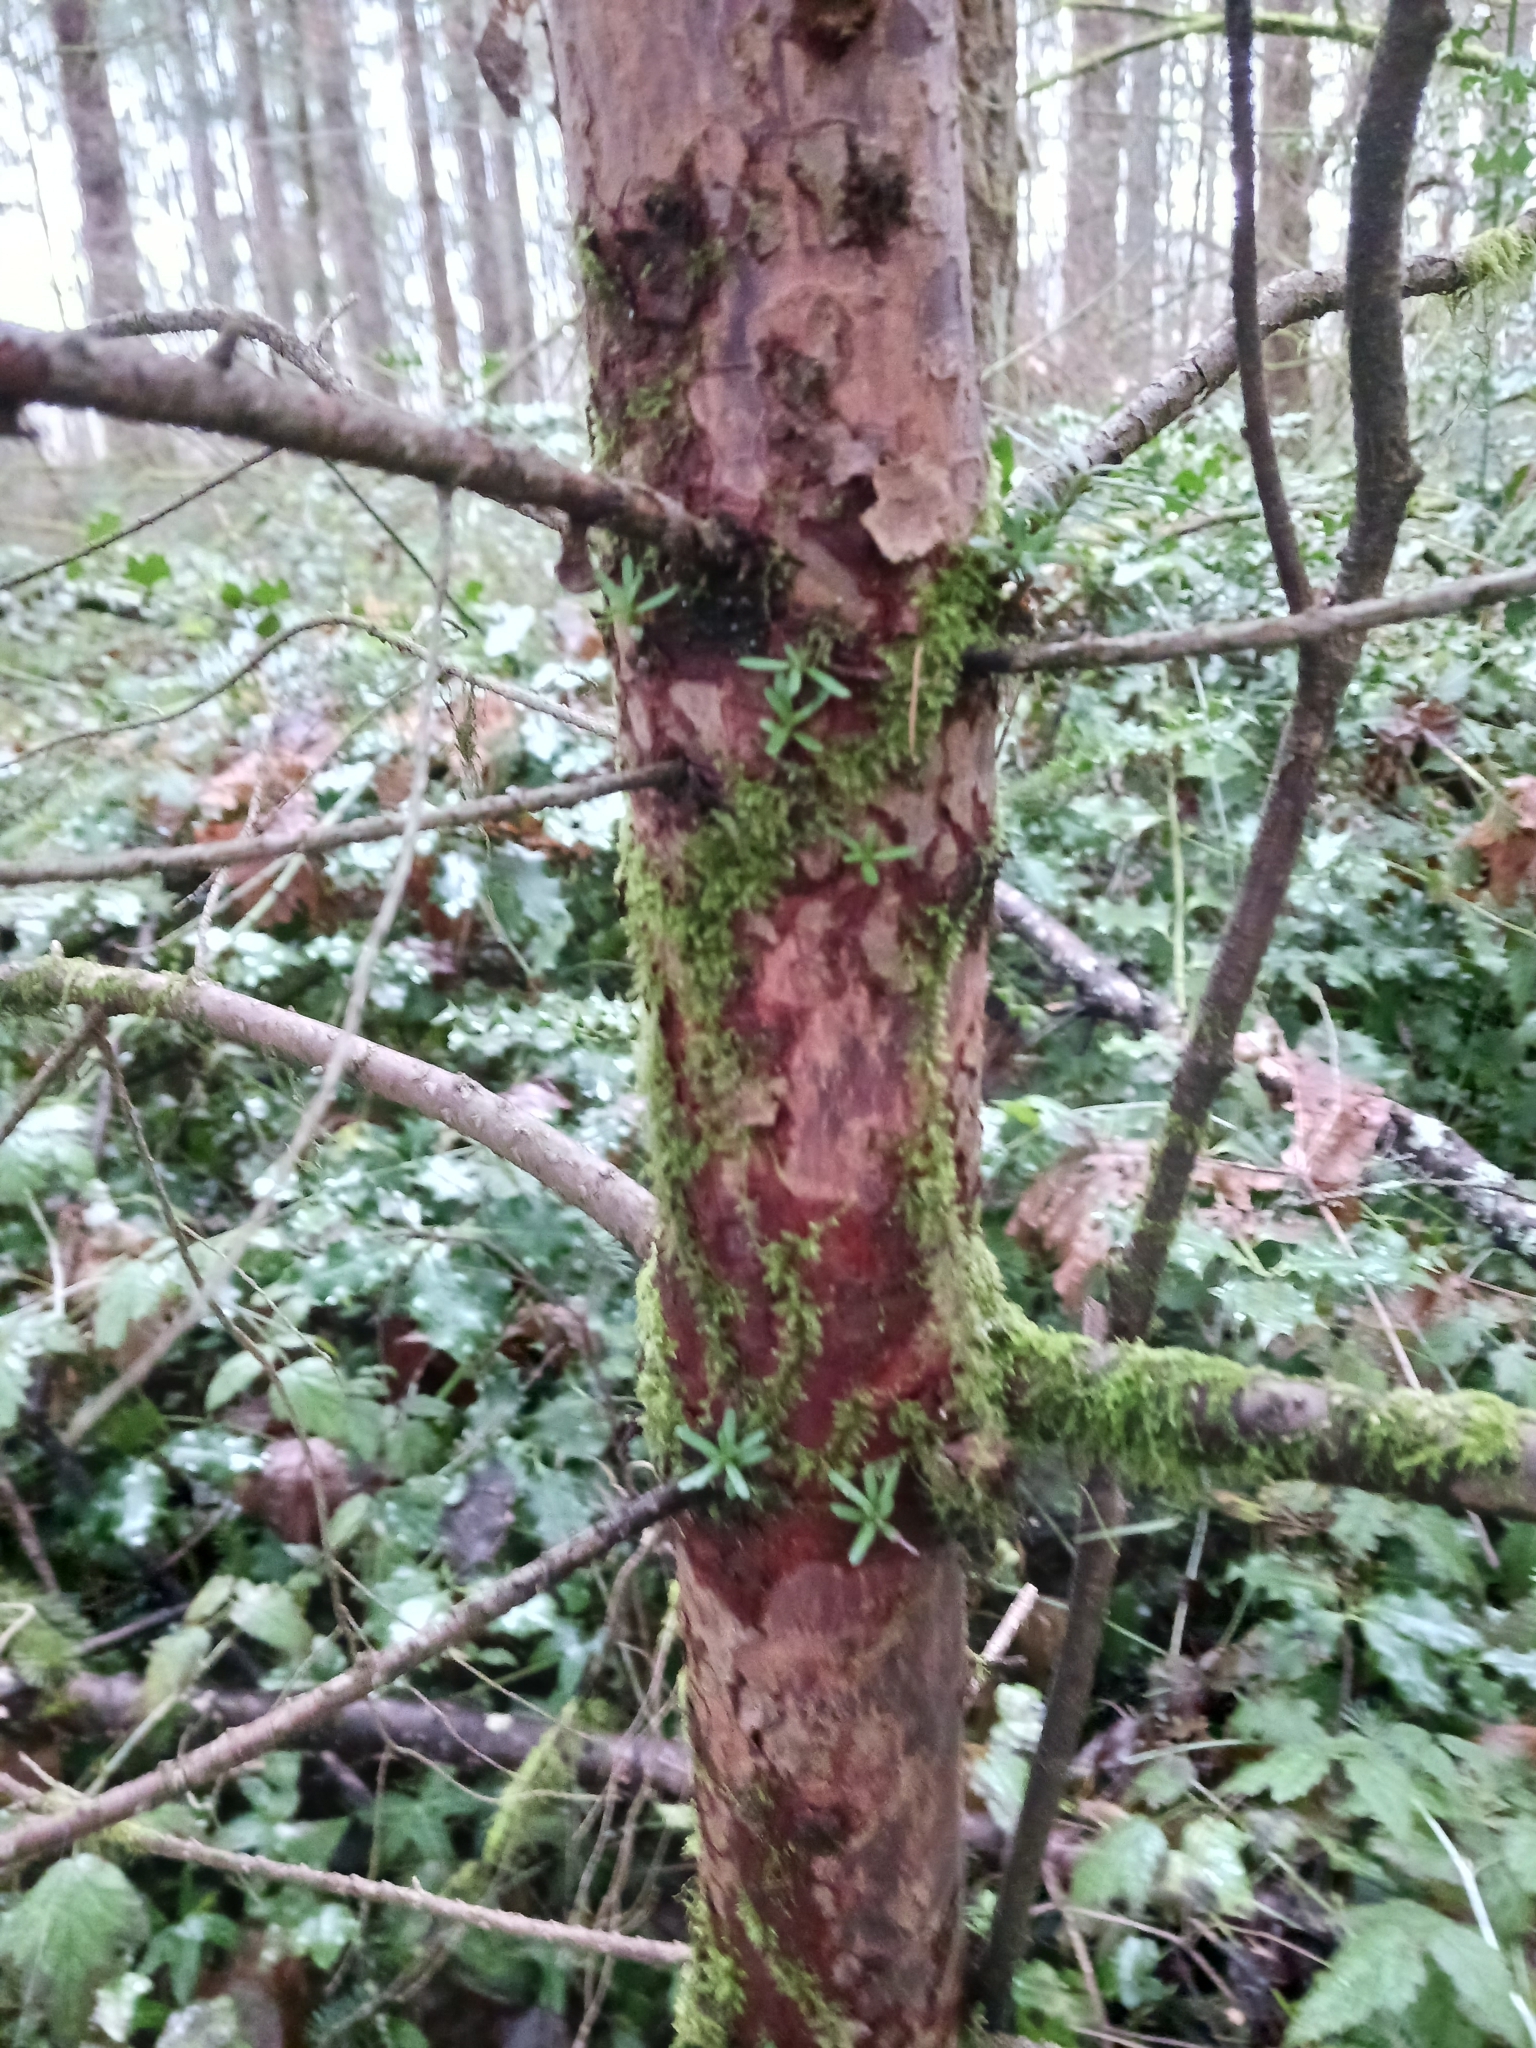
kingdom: Plantae
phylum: Tracheophyta
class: Pinopsida
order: Pinales
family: Taxaceae
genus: Taxus
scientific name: Taxus brevifolia
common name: Pacific yew
